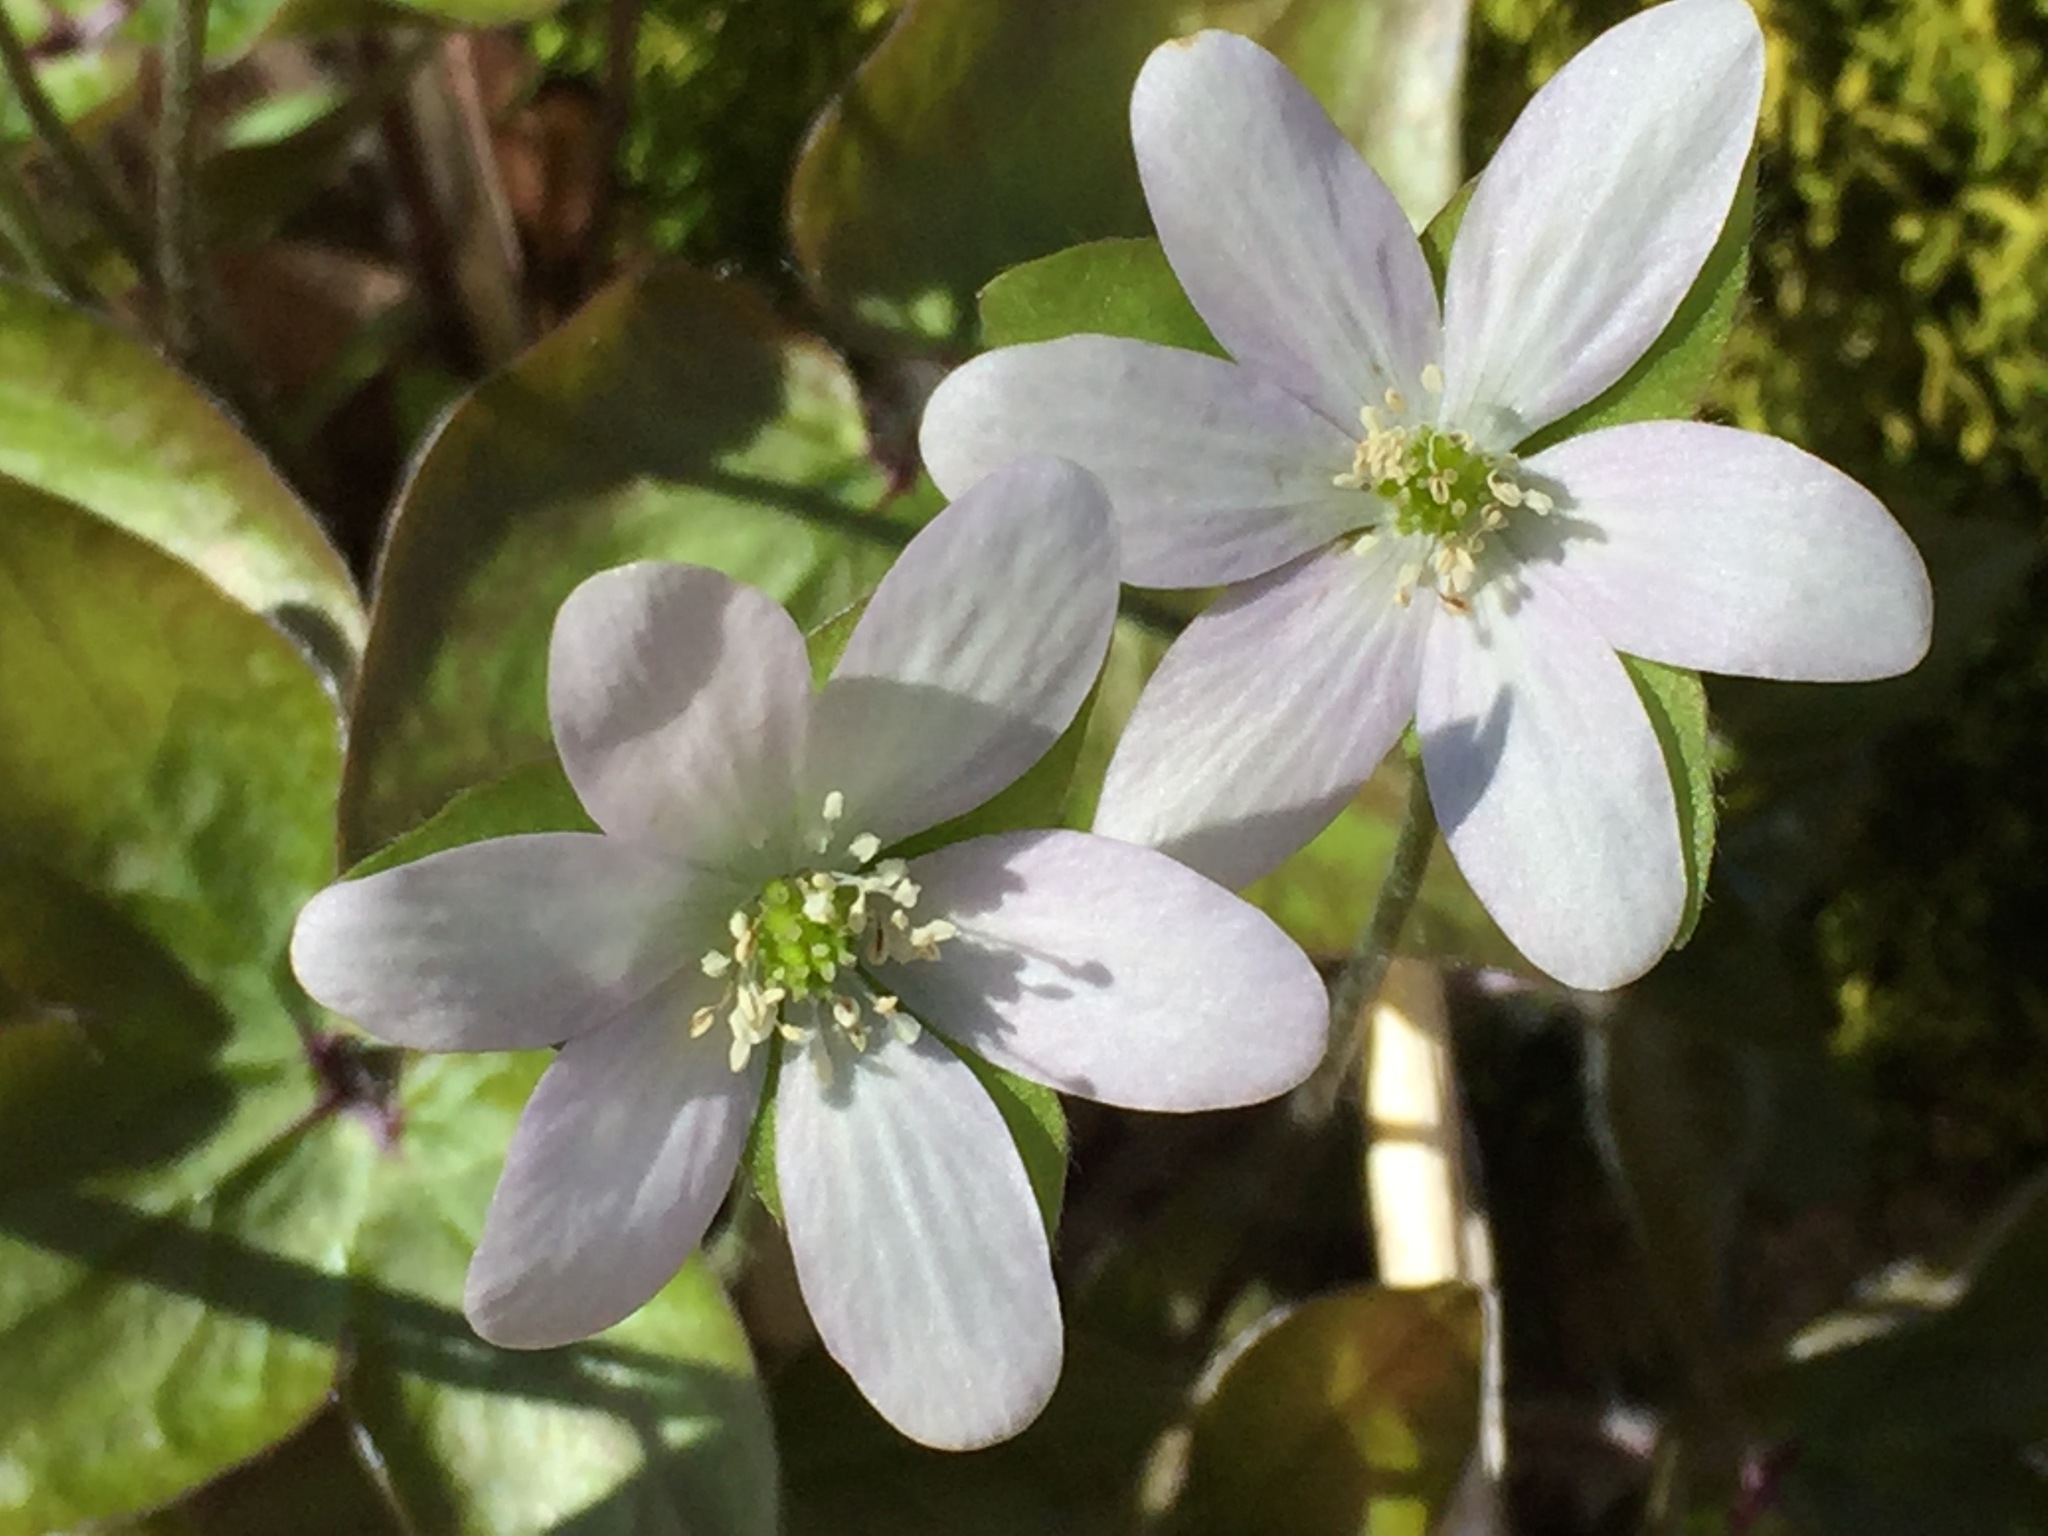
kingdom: Plantae
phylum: Tracheophyta
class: Magnoliopsida
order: Ranunculales
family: Ranunculaceae
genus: Hepatica
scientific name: Hepatica acutiloba
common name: Sharp-lobed hepatica
